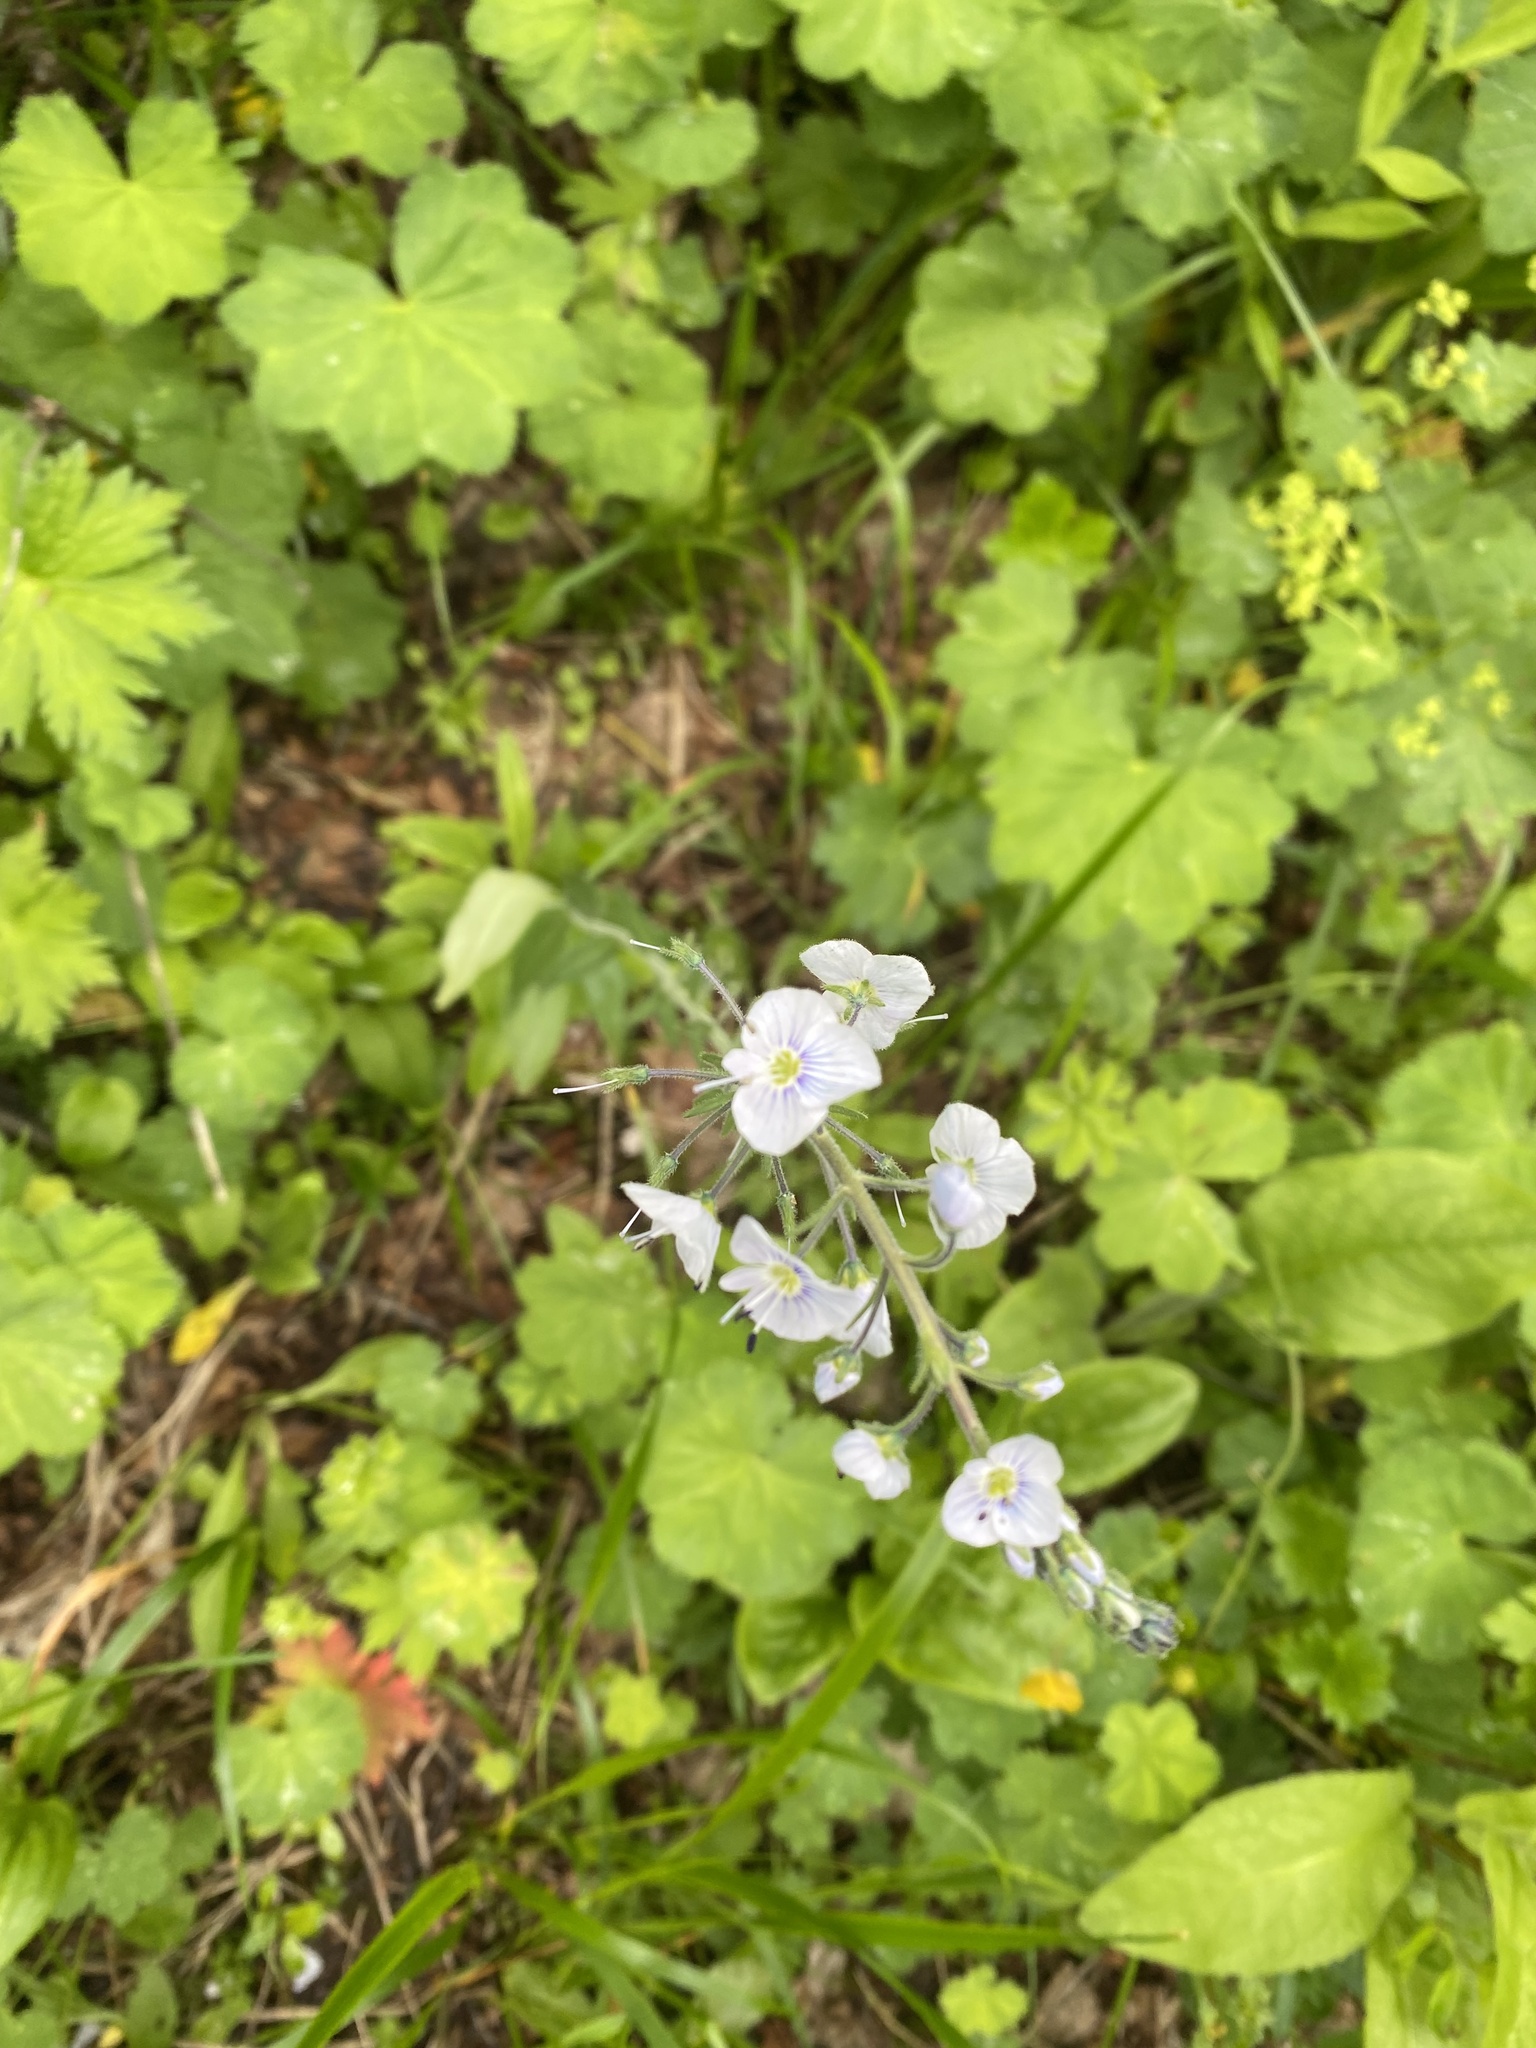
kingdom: Plantae
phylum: Tracheophyta
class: Magnoliopsida
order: Lamiales
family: Plantaginaceae
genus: Veronica
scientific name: Veronica gentianoides
